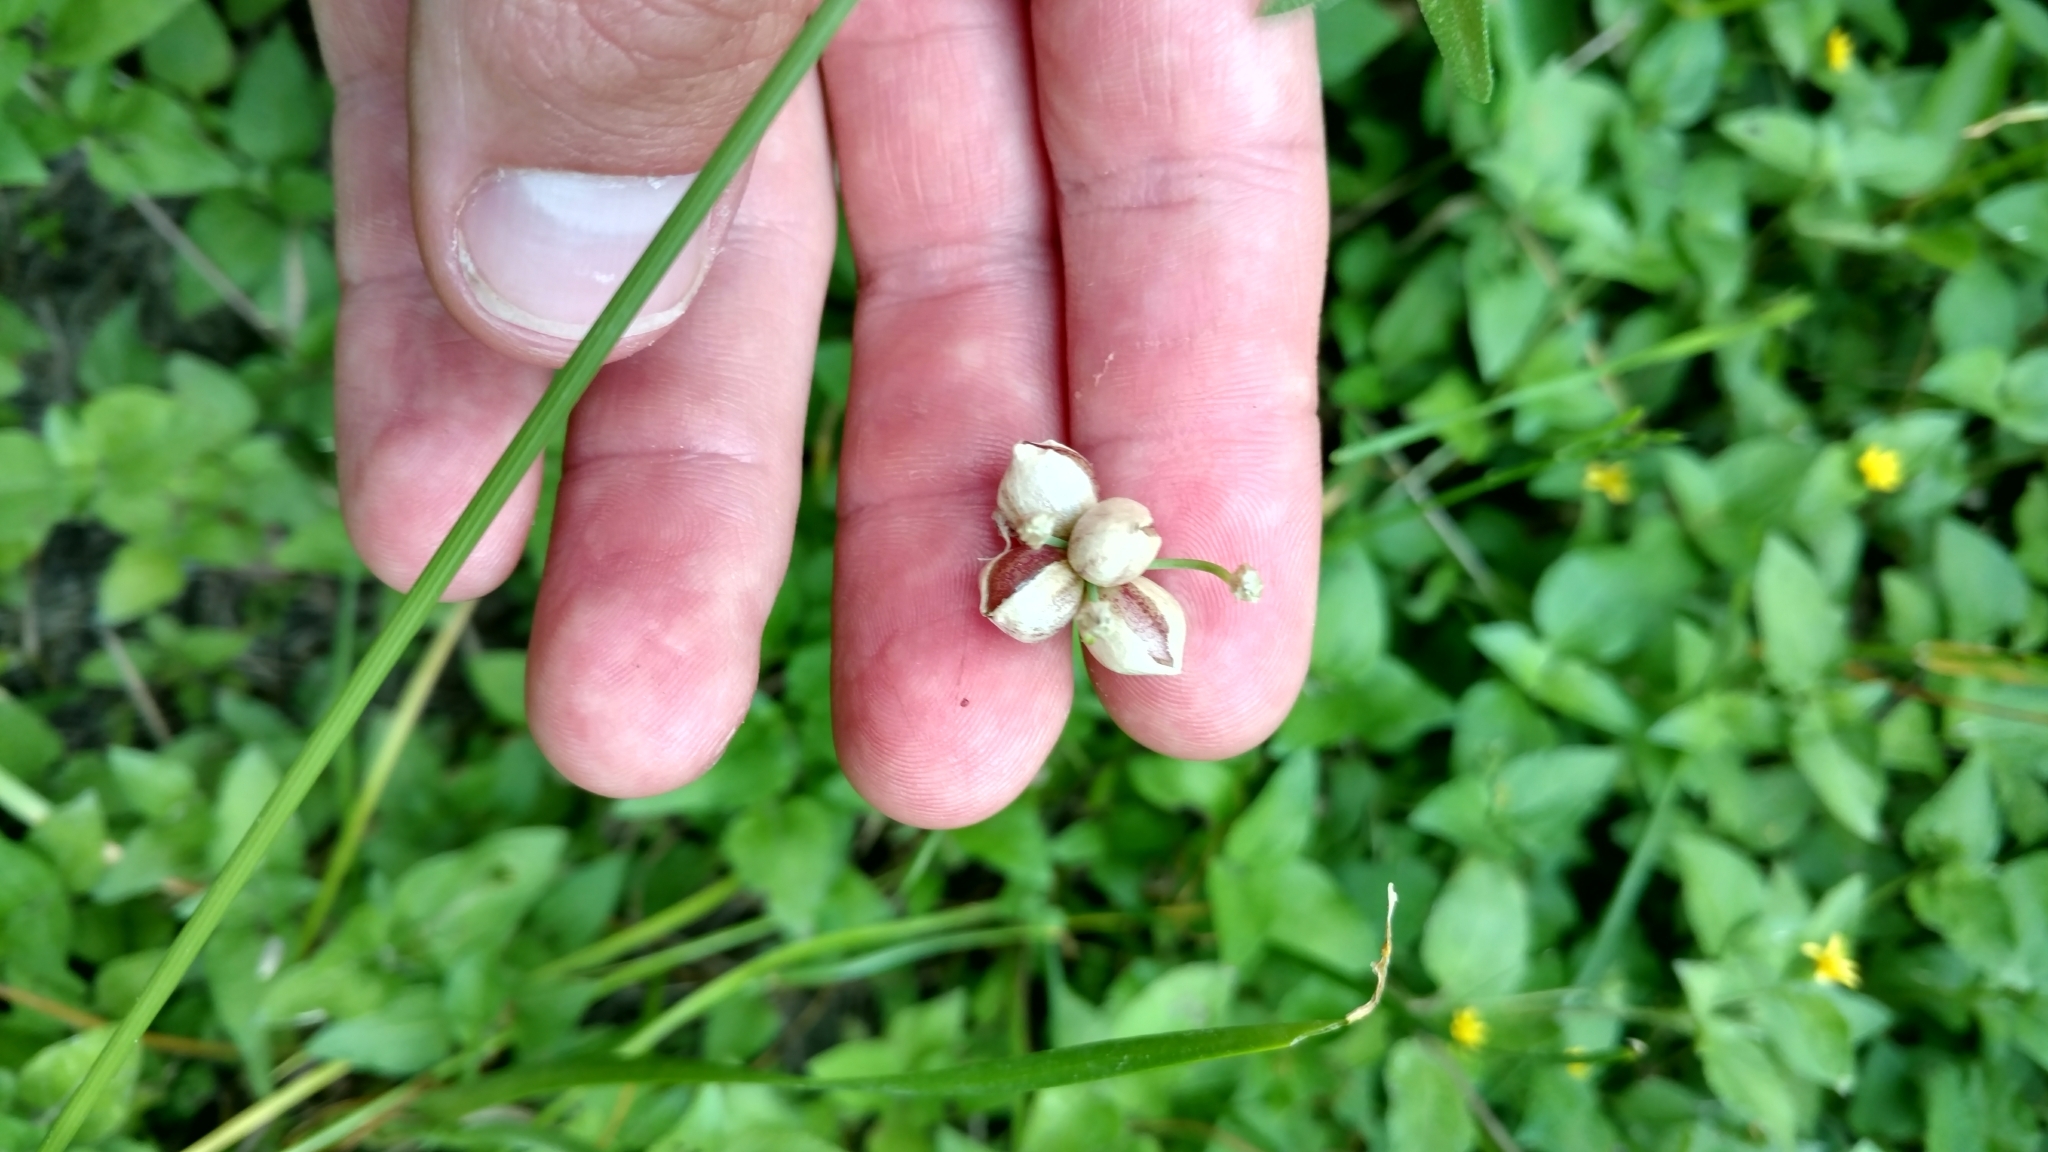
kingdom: Plantae
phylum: Tracheophyta
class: Liliopsida
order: Asparagales
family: Amaryllidaceae
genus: Allium
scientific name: Allium canadense
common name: Meadow garlic
